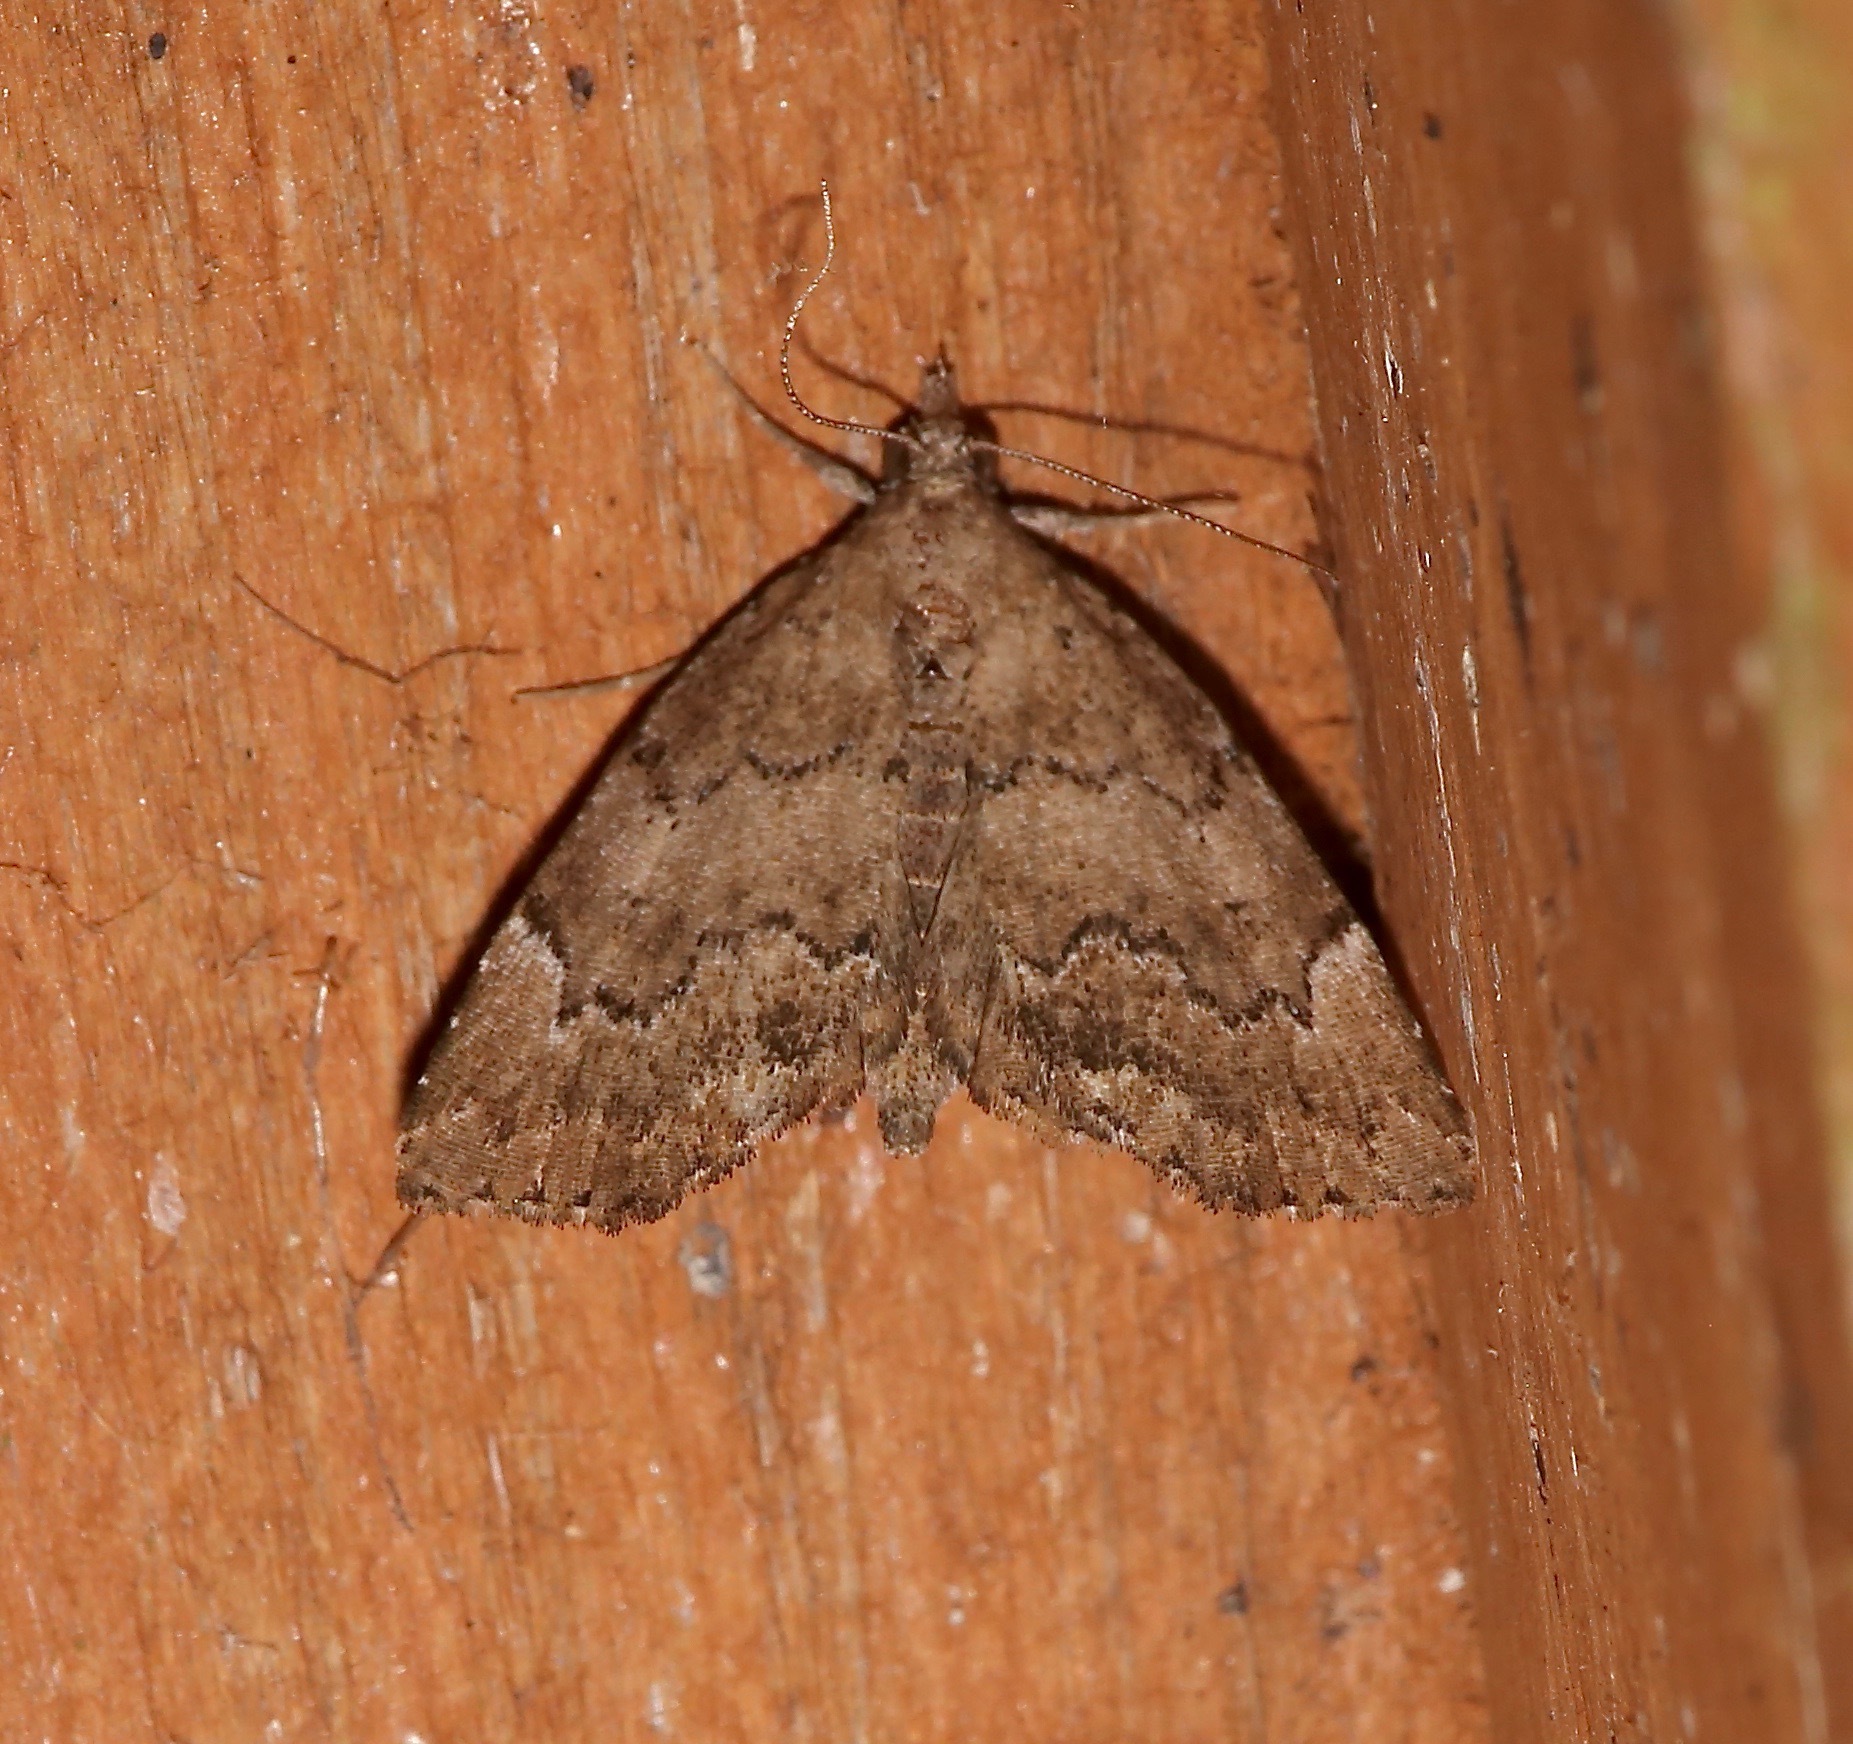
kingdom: Animalia
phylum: Arthropoda
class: Insecta
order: Lepidoptera
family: Erebidae
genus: Cutina
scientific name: Cutina aluticolor
